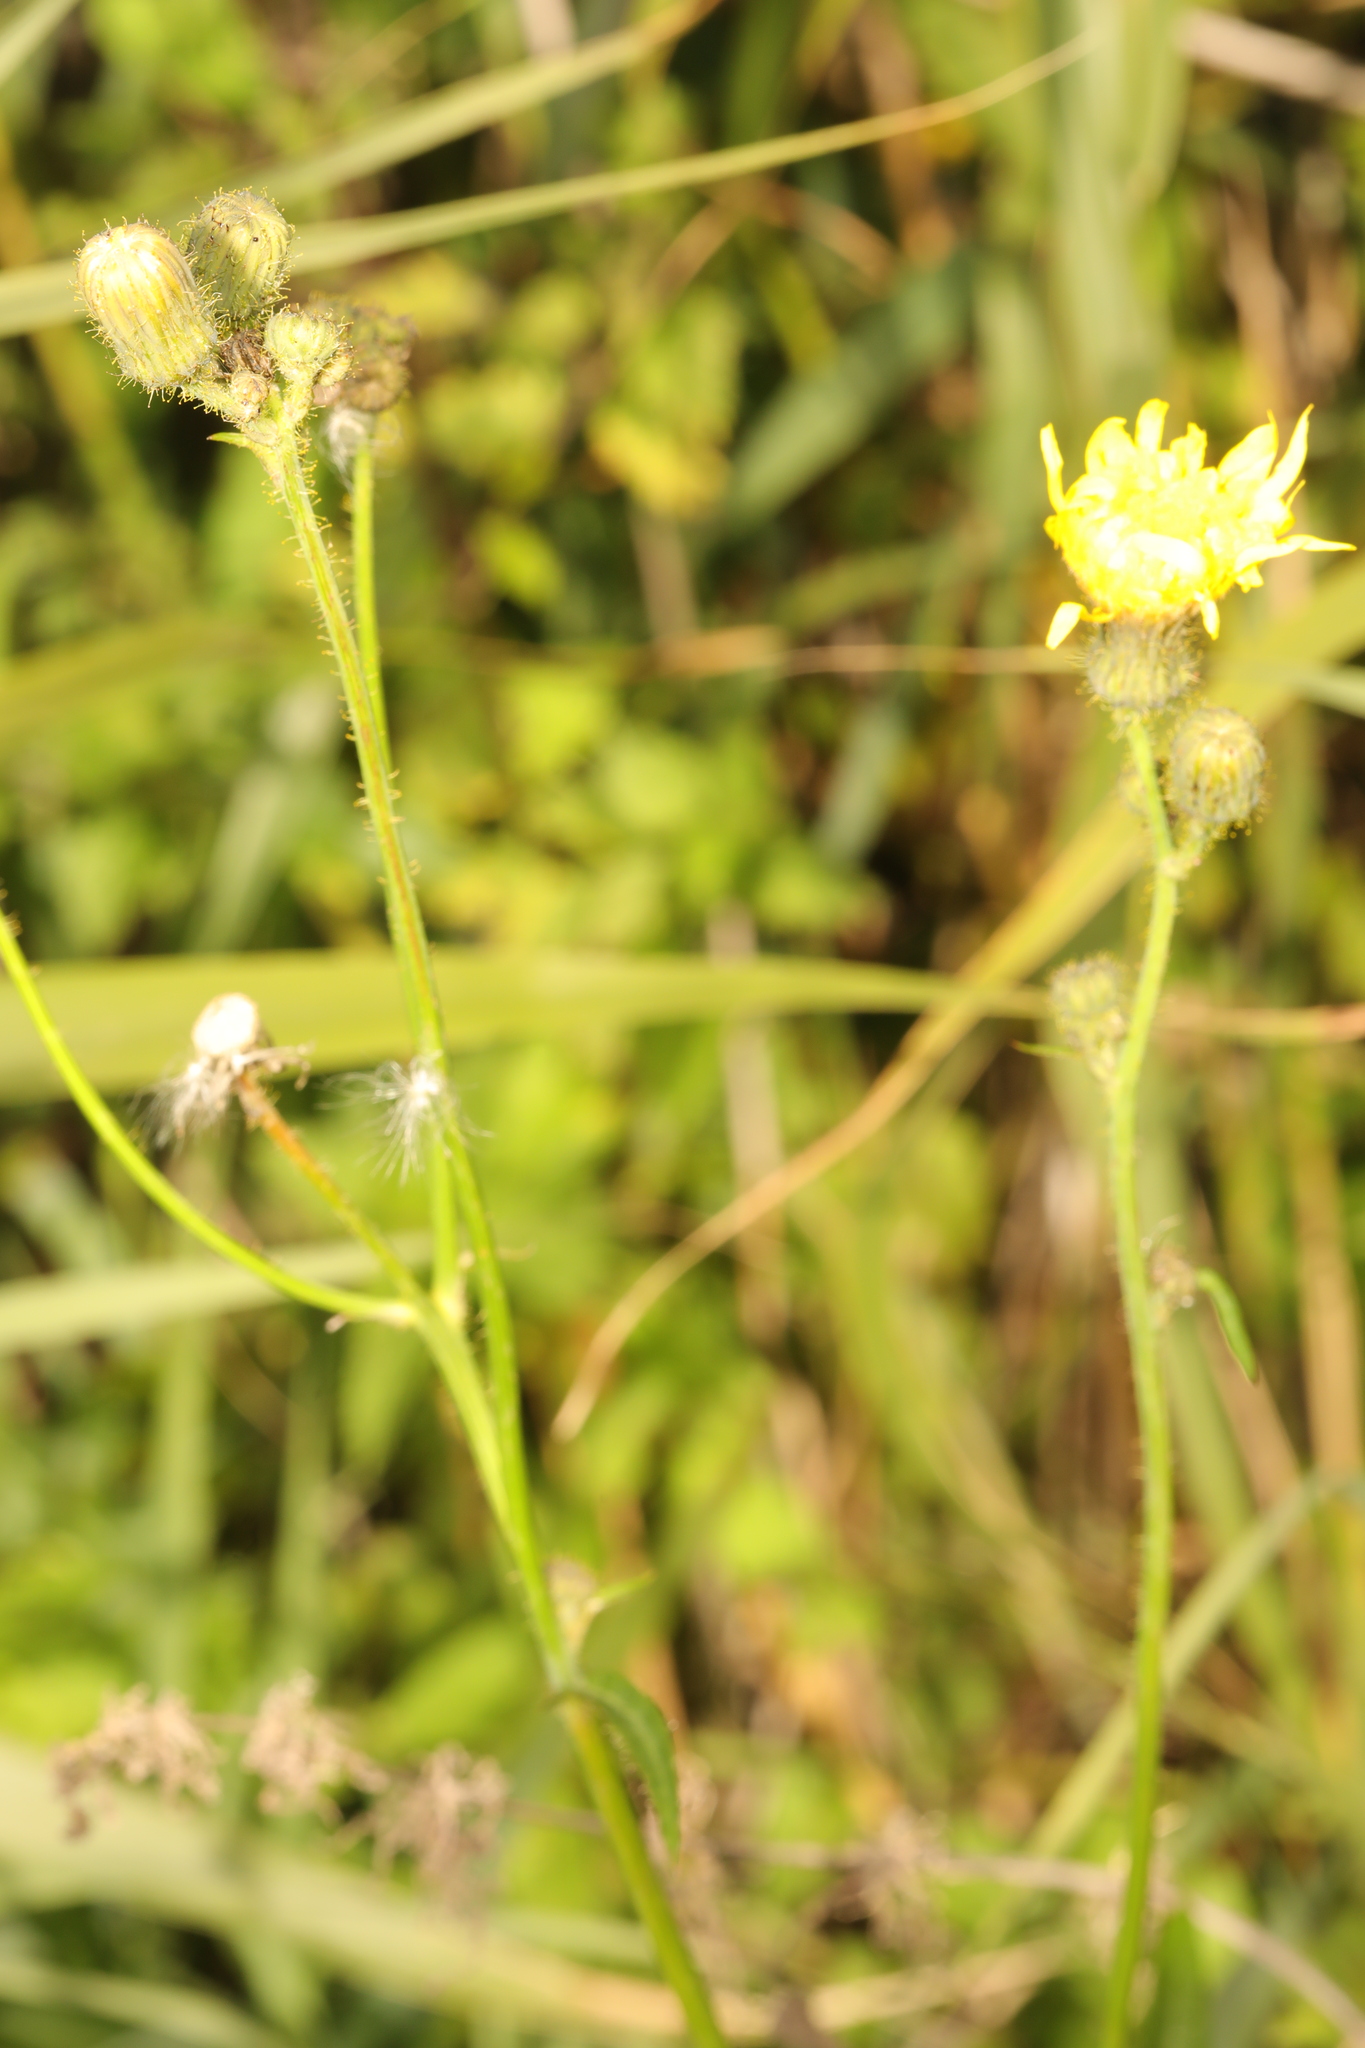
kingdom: Plantae
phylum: Tracheophyta
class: Magnoliopsida
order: Asterales
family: Asteraceae
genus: Sonchus
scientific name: Sonchus arvensis
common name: Perennial sow-thistle
